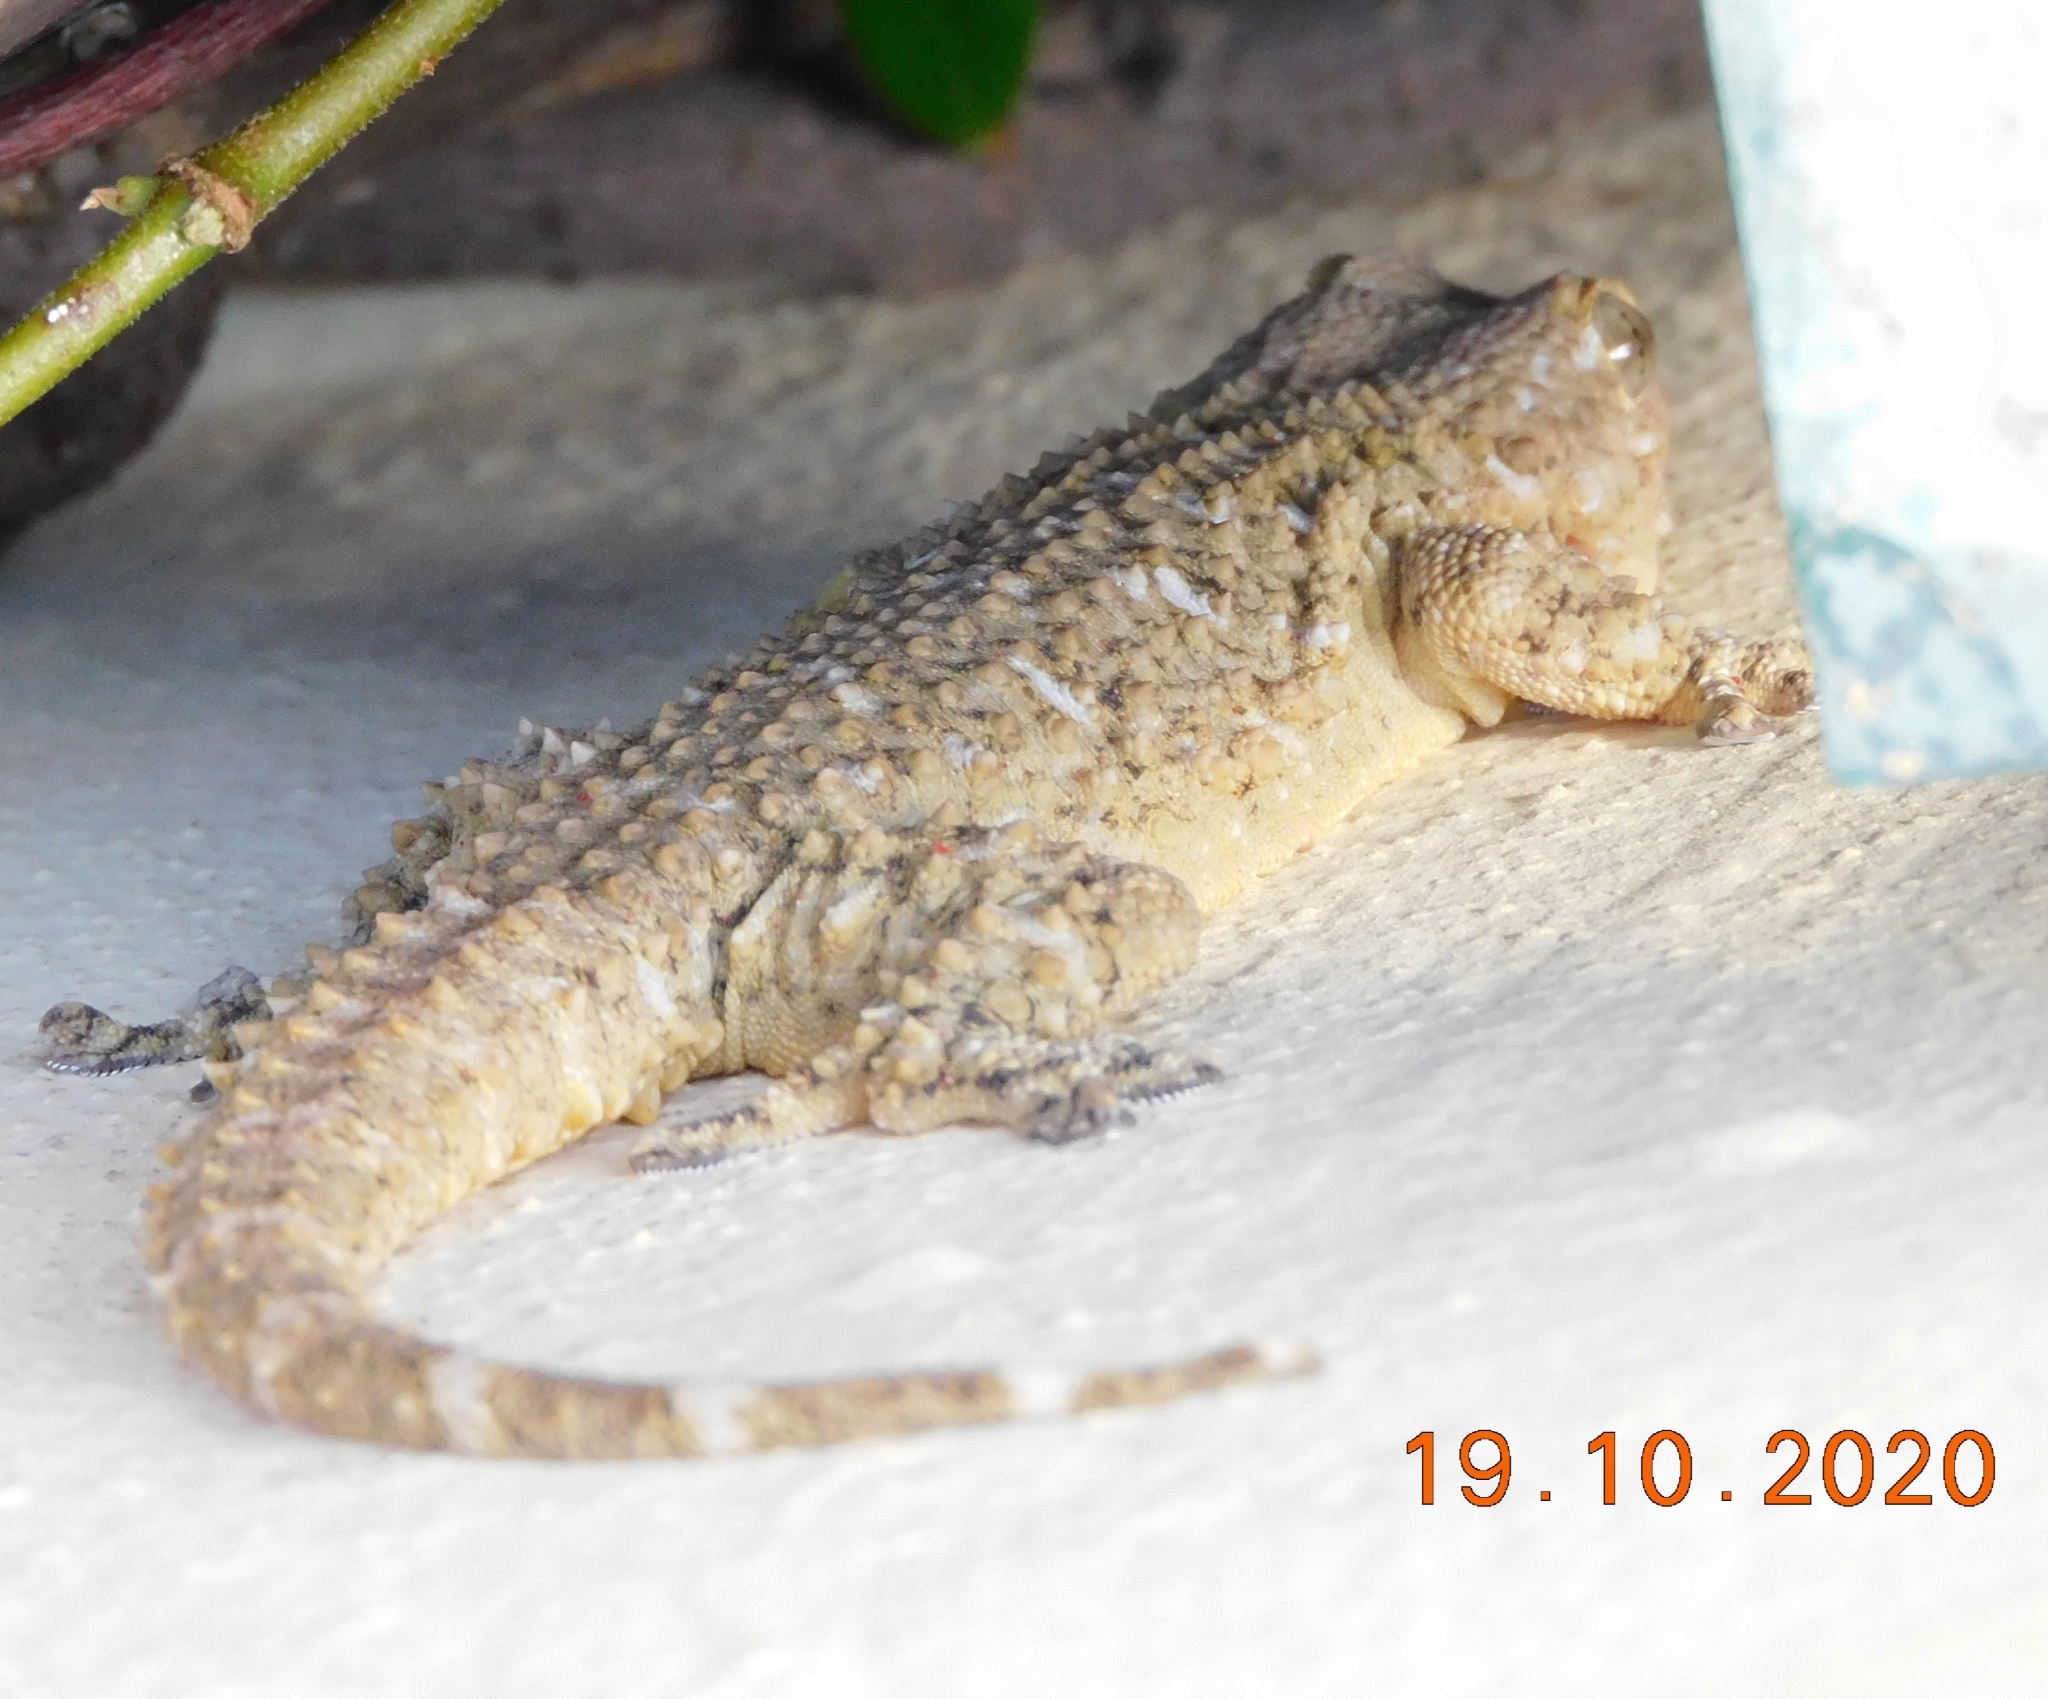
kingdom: Animalia
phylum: Chordata
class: Squamata
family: Phyllodactylidae
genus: Tarentola
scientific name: Tarentola mauritanica
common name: Moorish gecko
